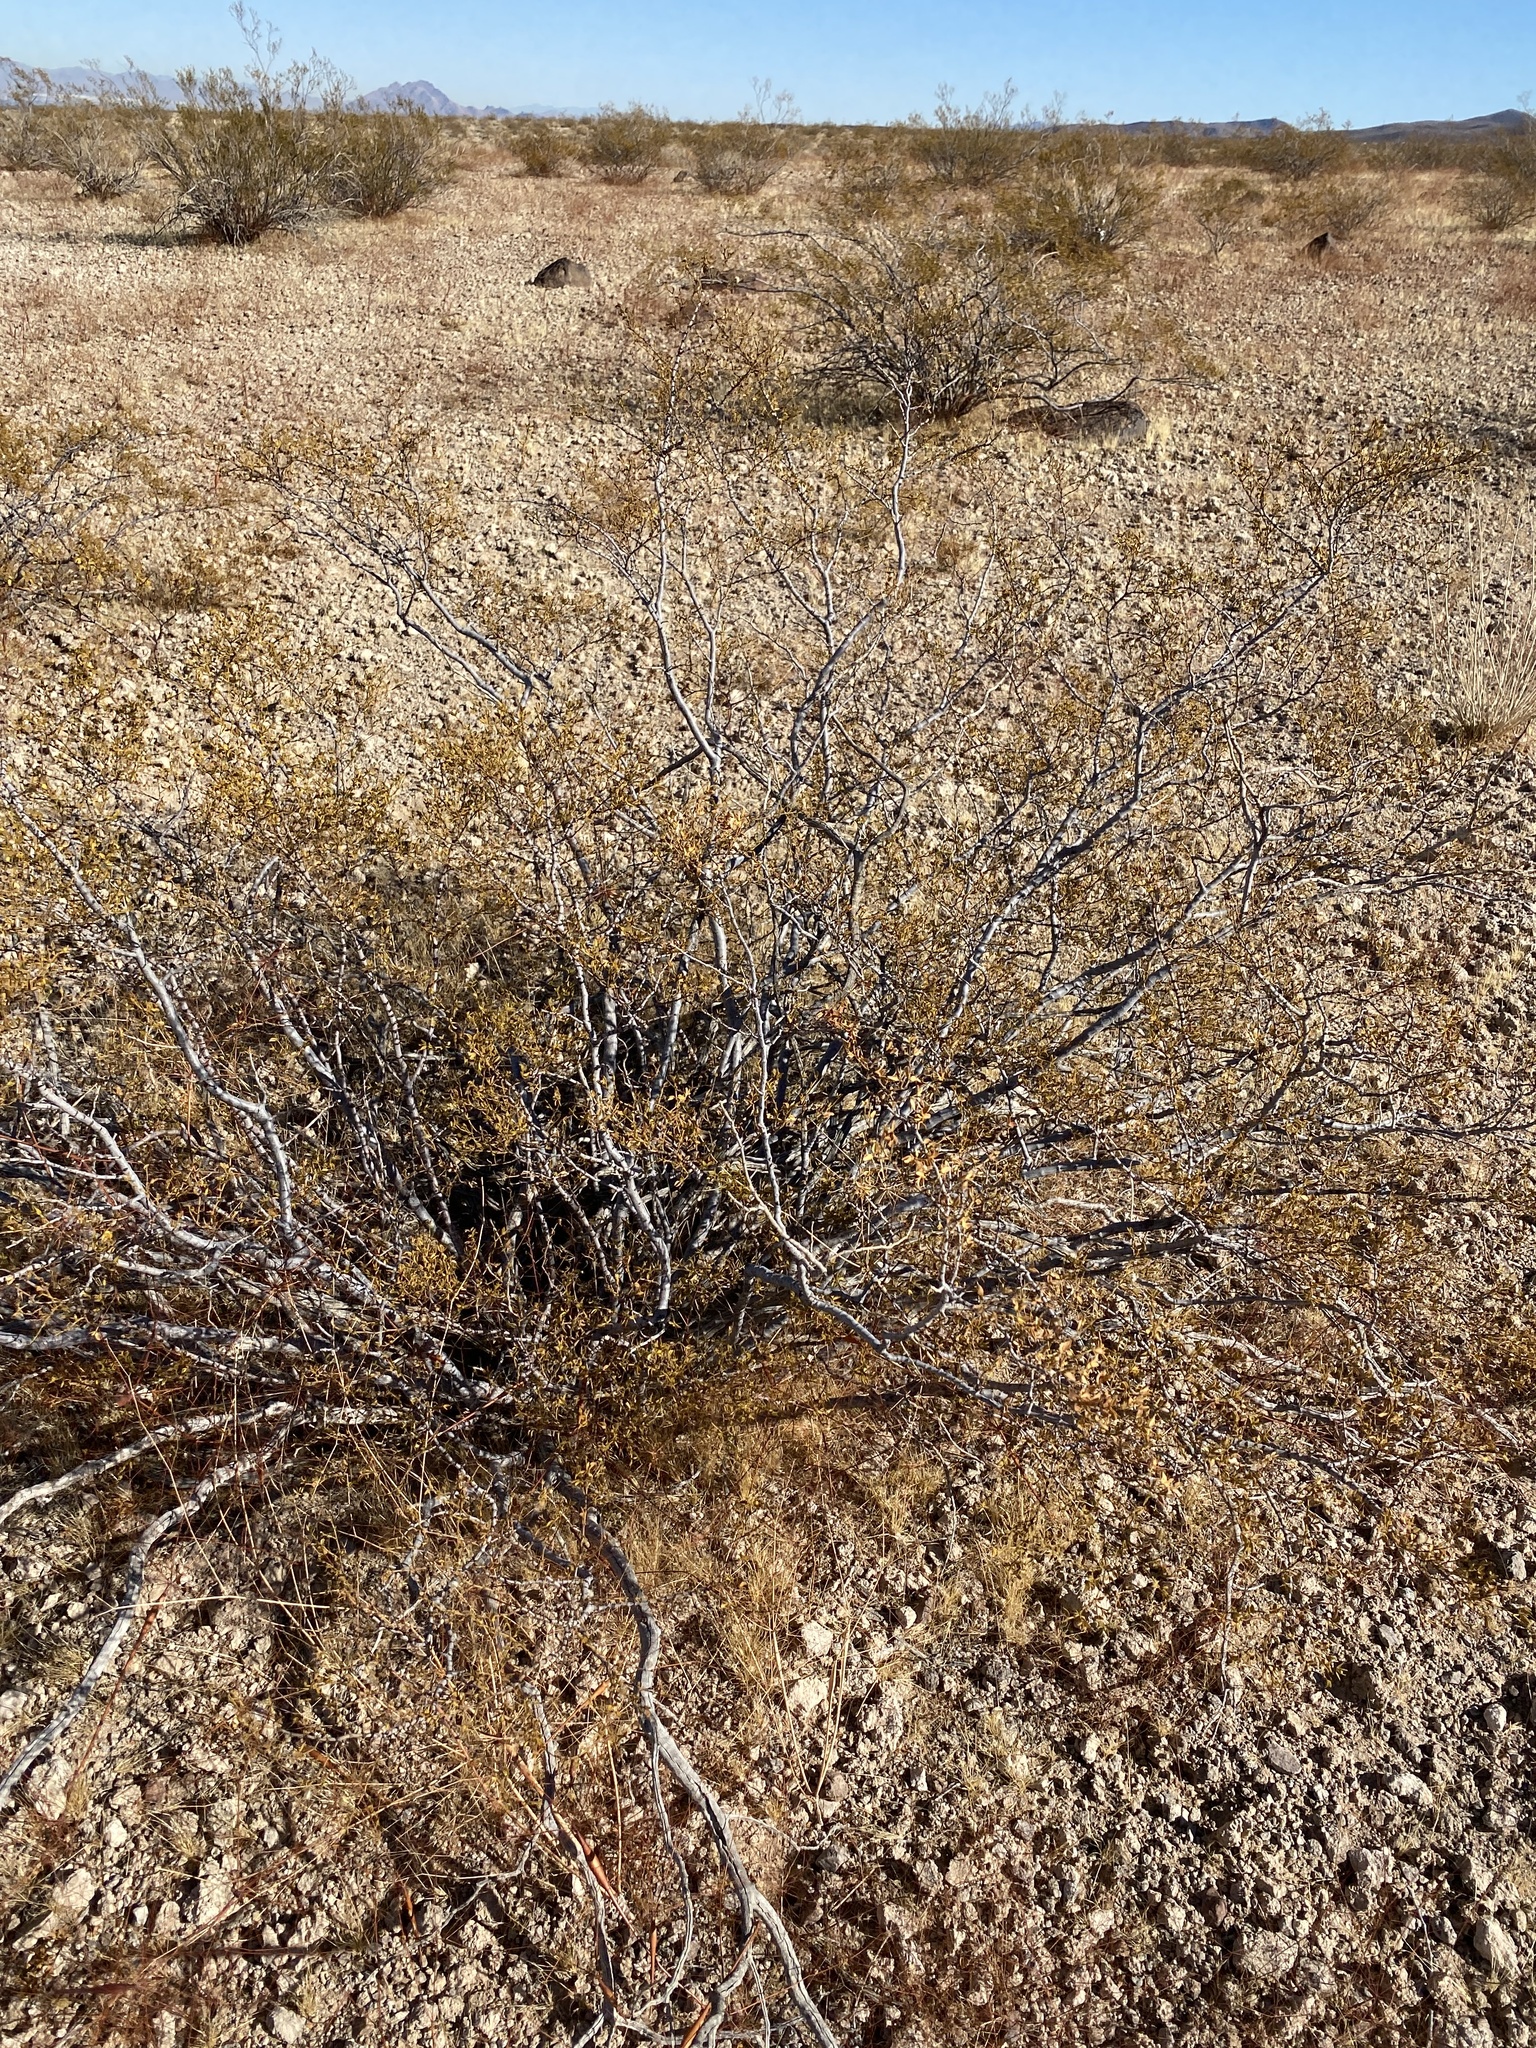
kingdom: Plantae
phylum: Tracheophyta
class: Magnoliopsida
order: Zygophyllales
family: Zygophyllaceae
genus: Larrea
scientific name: Larrea tridentata
